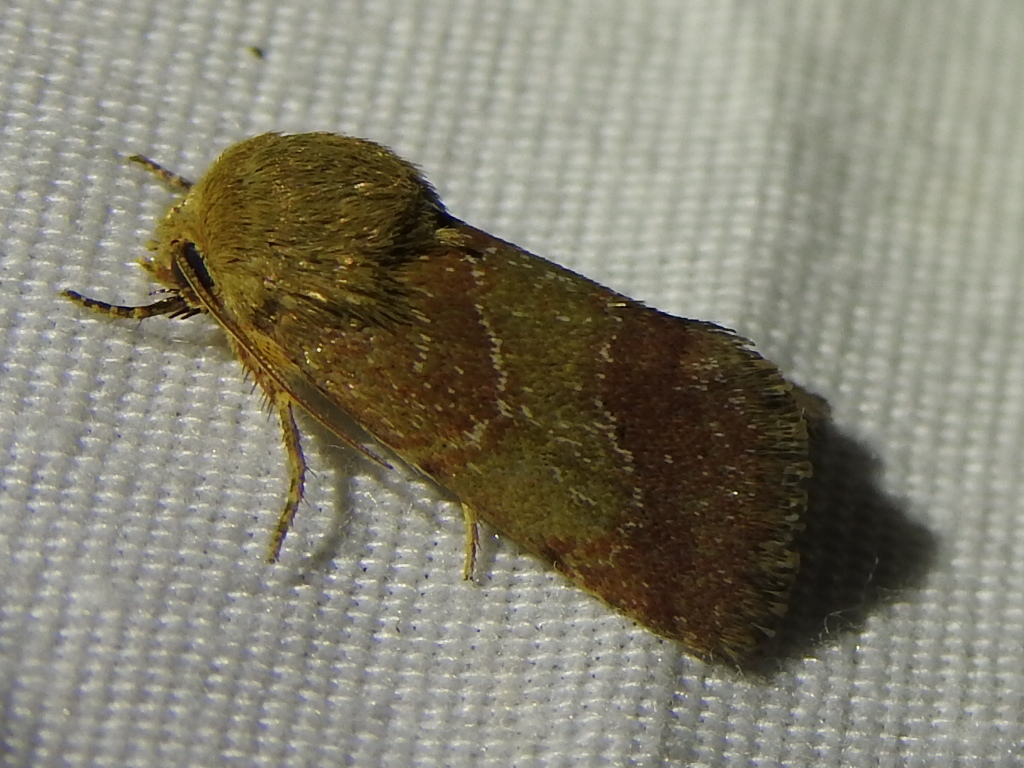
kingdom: Animalia
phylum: Arthropoda
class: Insecta
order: Lepidoptera
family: Noctuidae
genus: Schinia
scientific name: Schinia saturata
